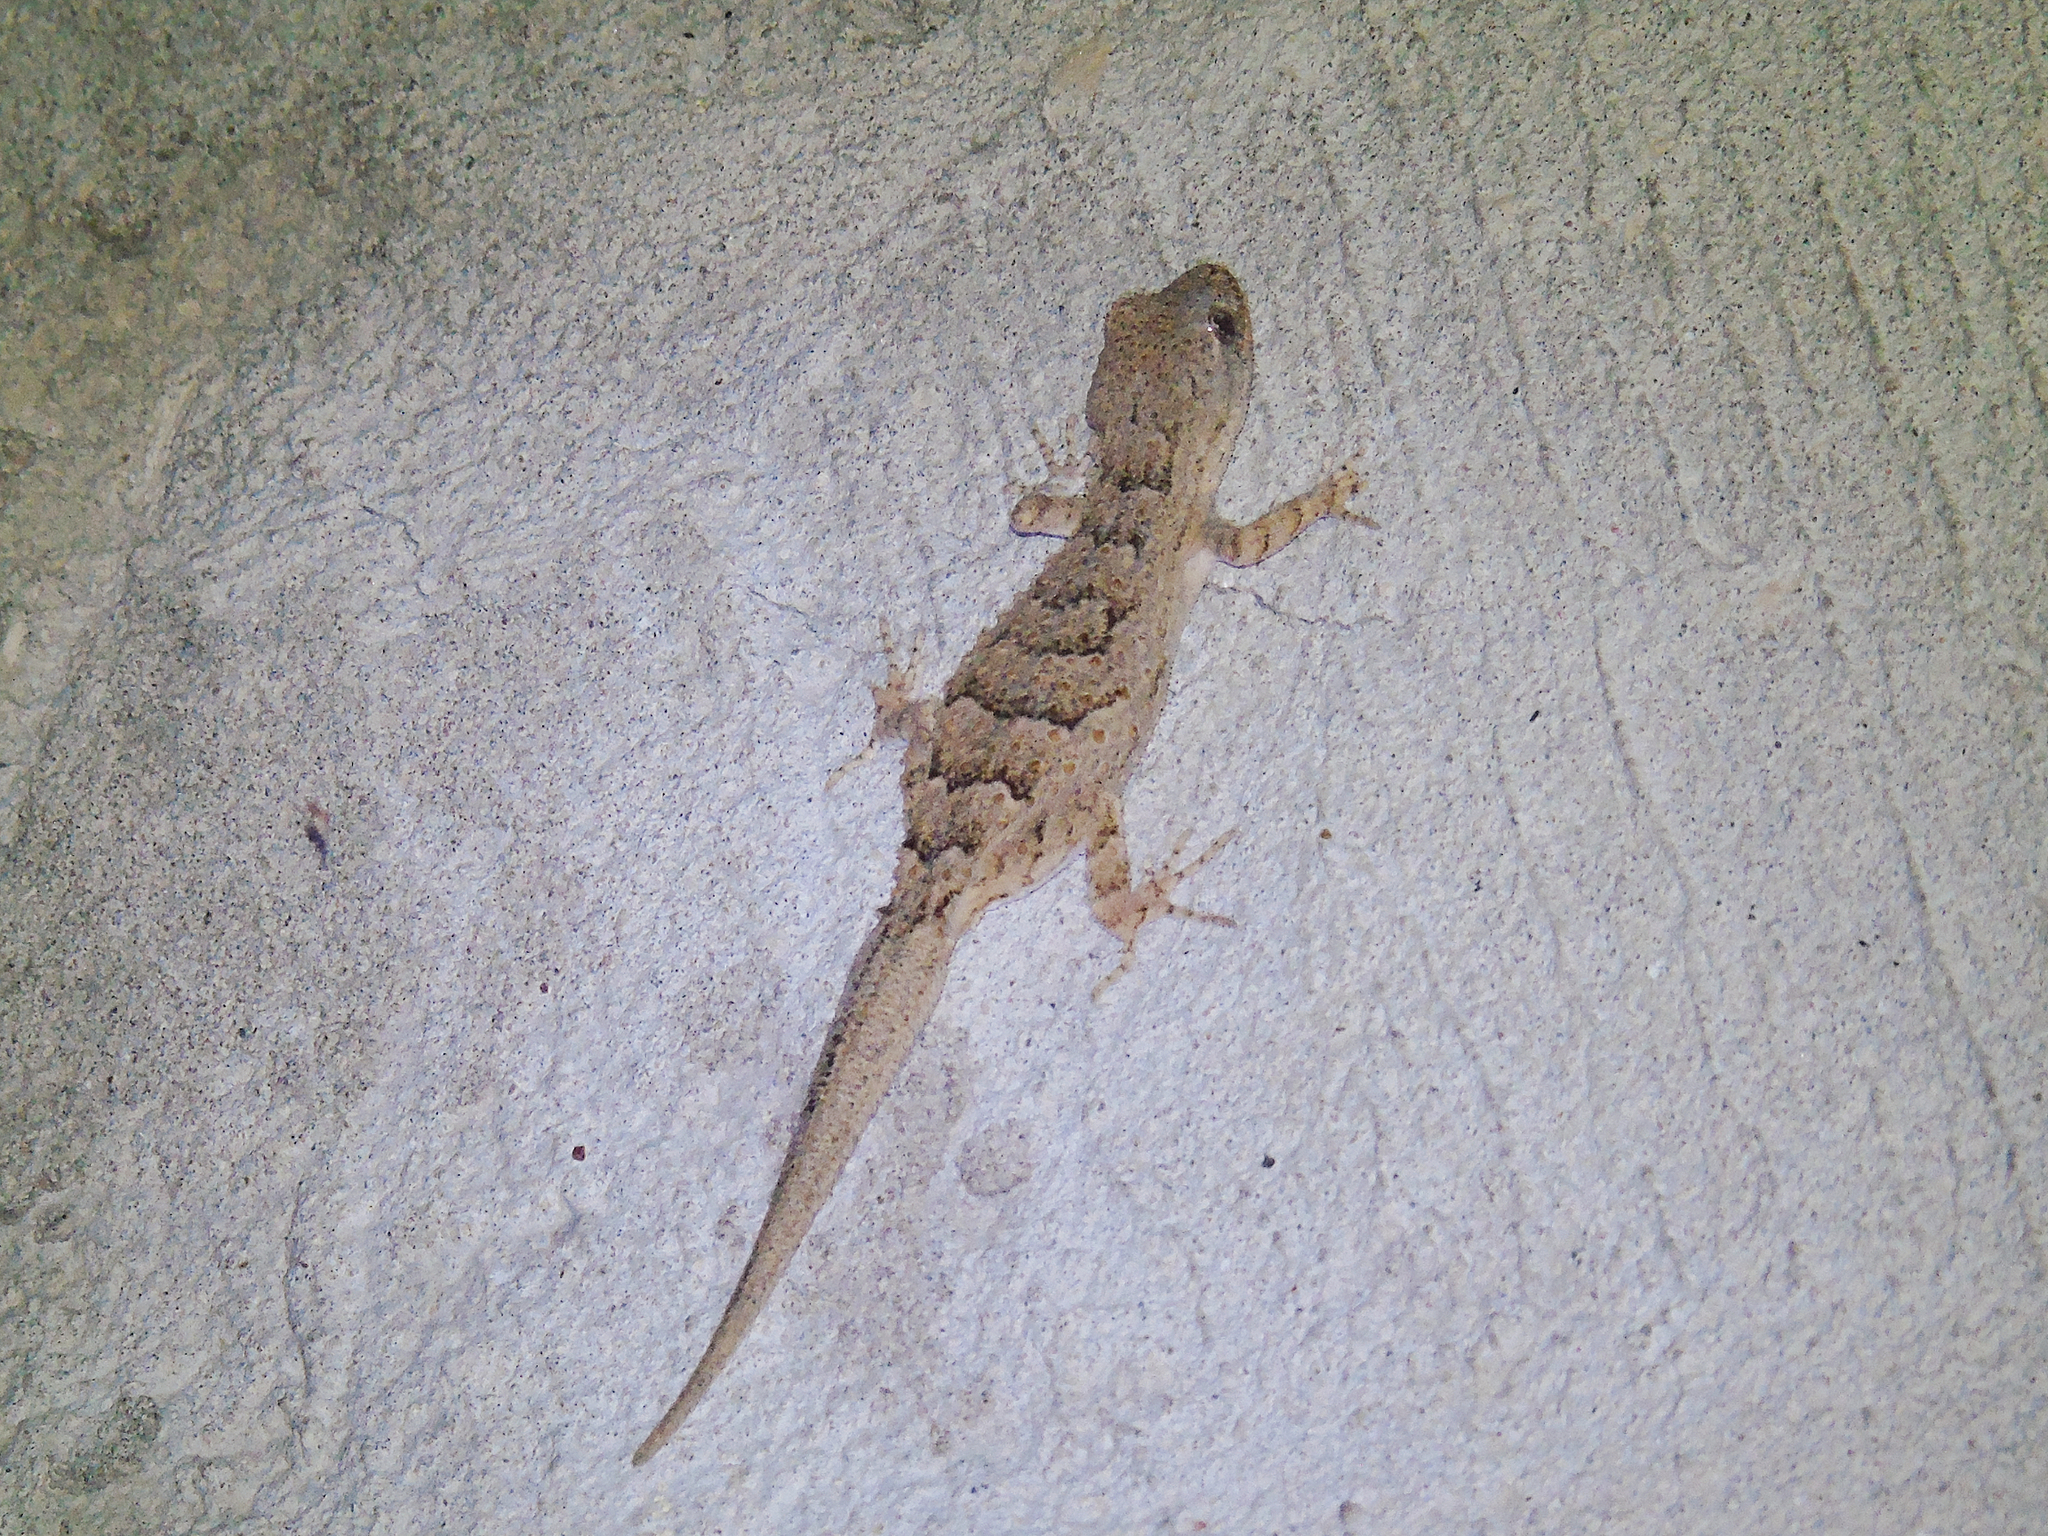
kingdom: Animalia
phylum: Chordata
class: Squamata
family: Gekkonidae
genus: Mediodactylus
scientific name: Mediodactylus russowii
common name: Grey thin-toed gecko
